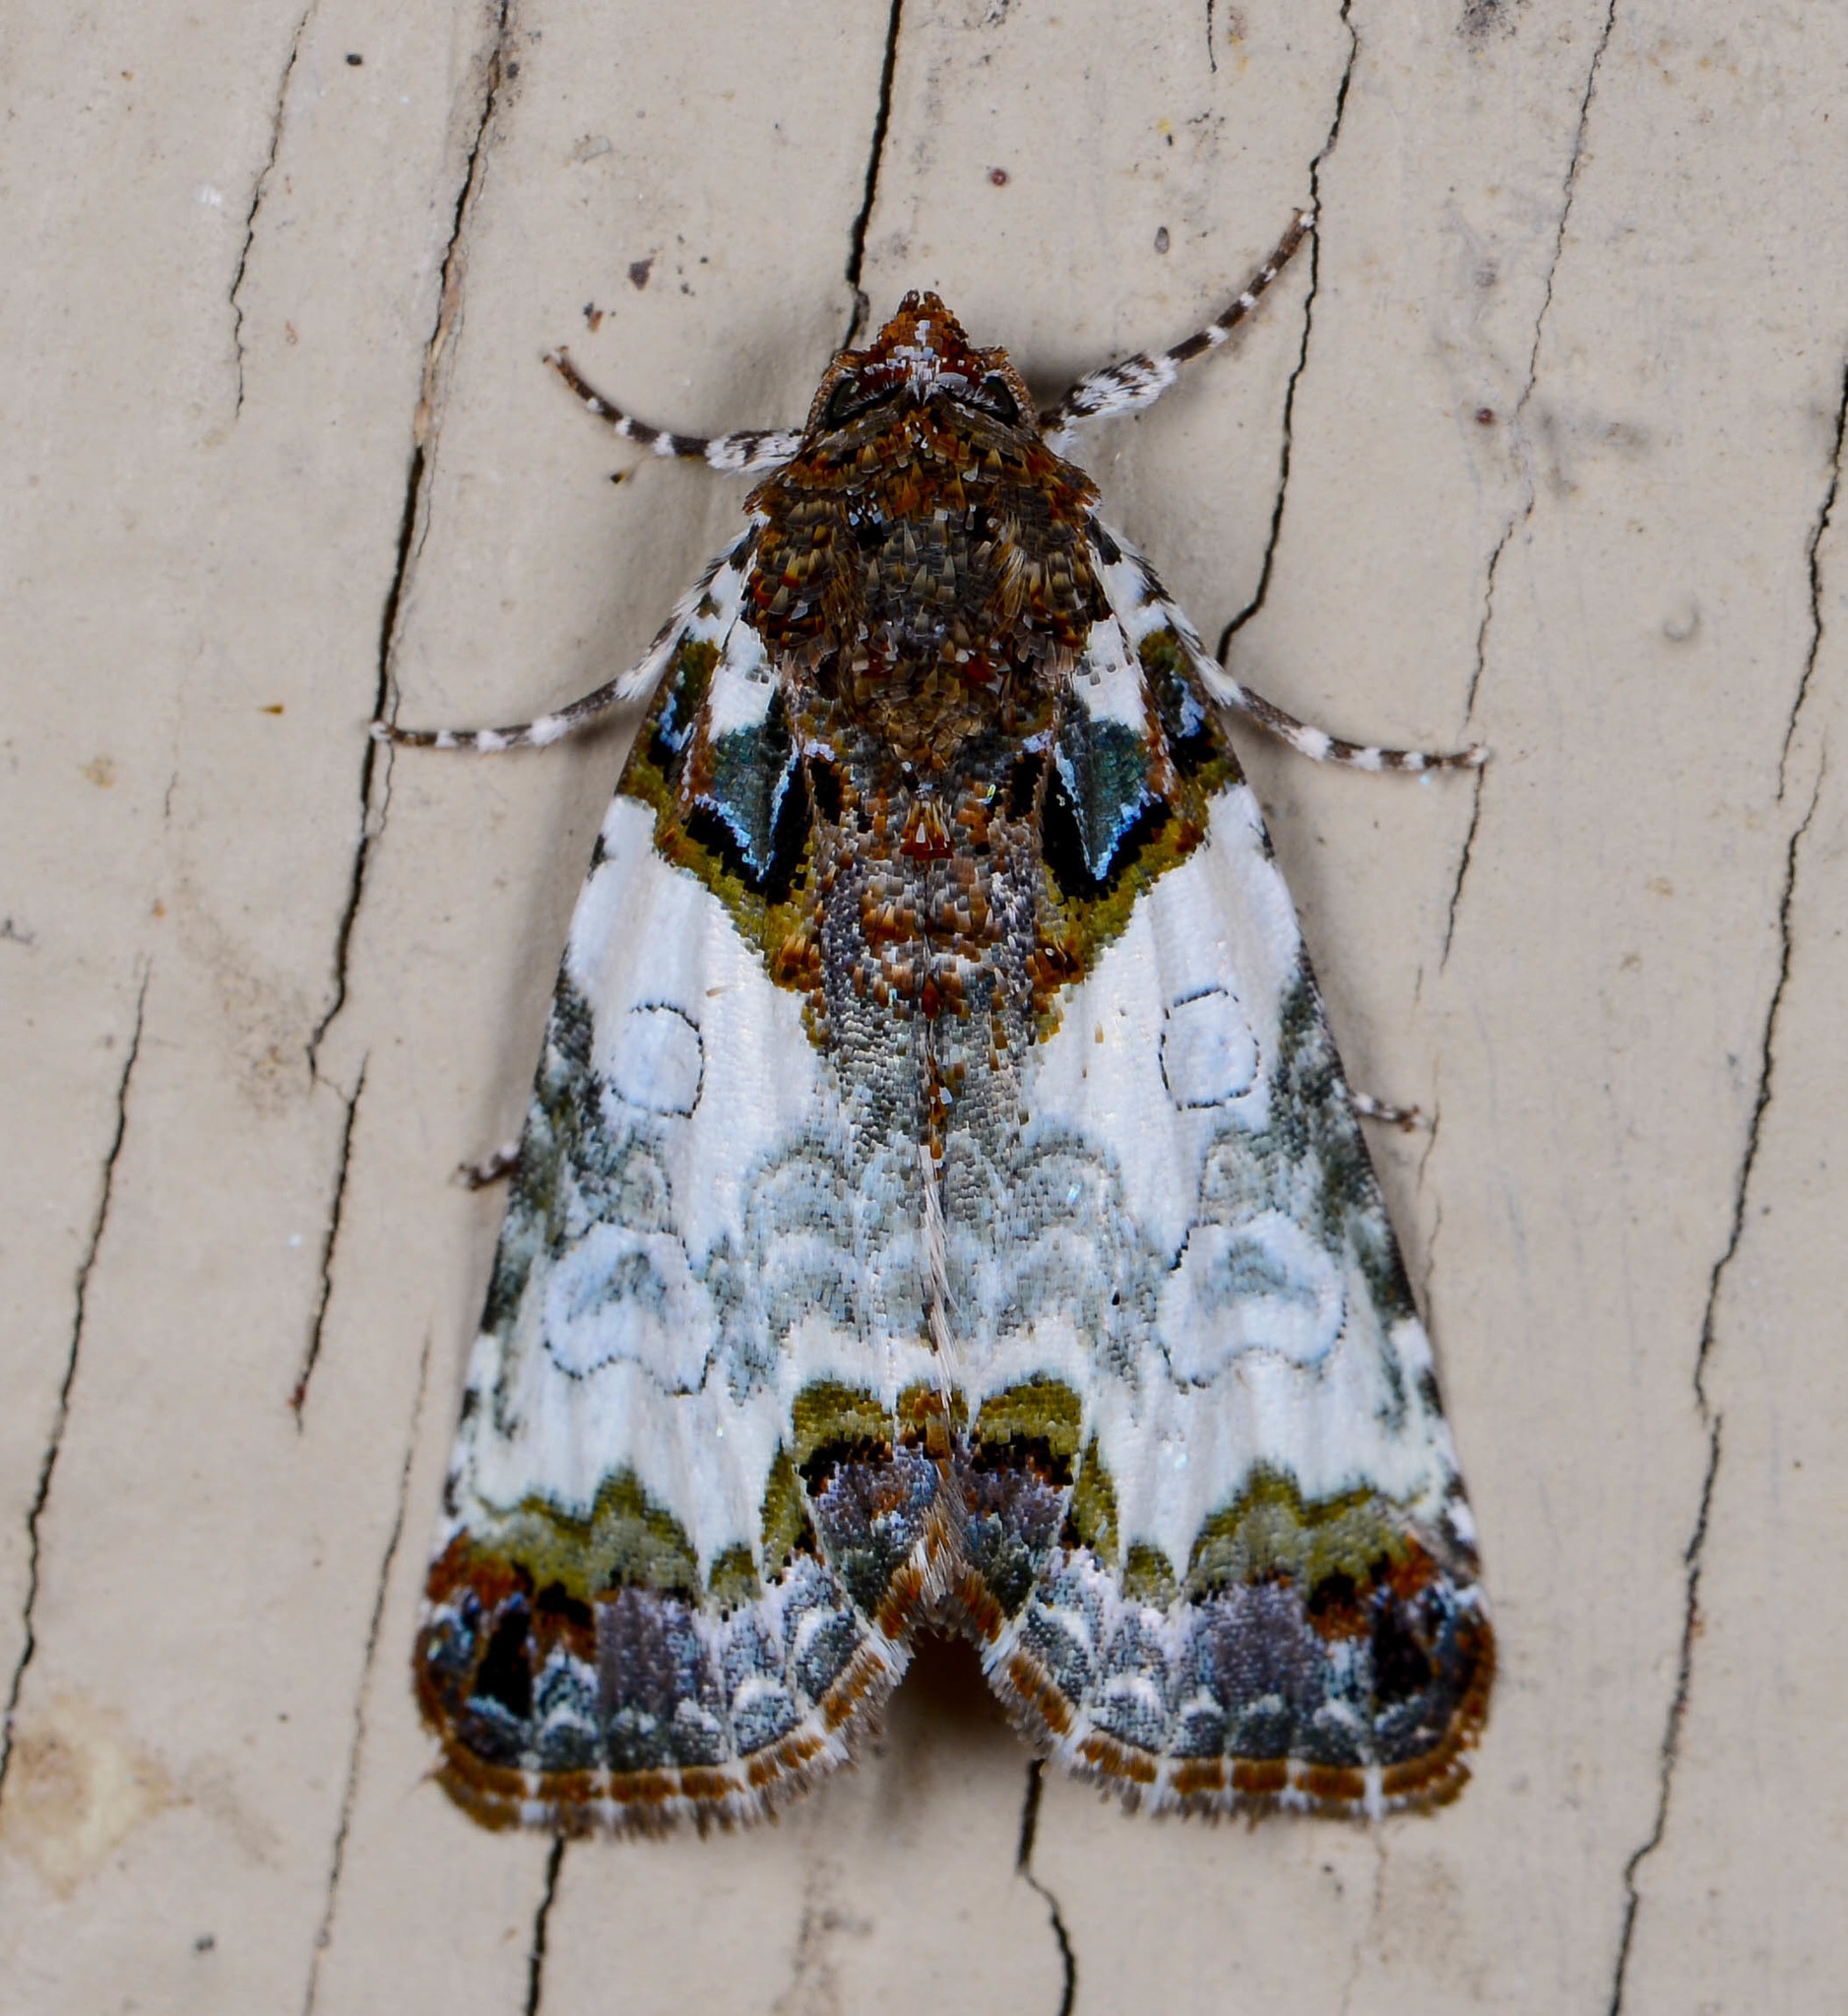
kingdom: Animalia
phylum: Arthropoda
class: Insecta
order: Lepidoptera
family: Noctuidae
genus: Cerma
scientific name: Cerma cerintha
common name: Tufted bird-dropping moth
